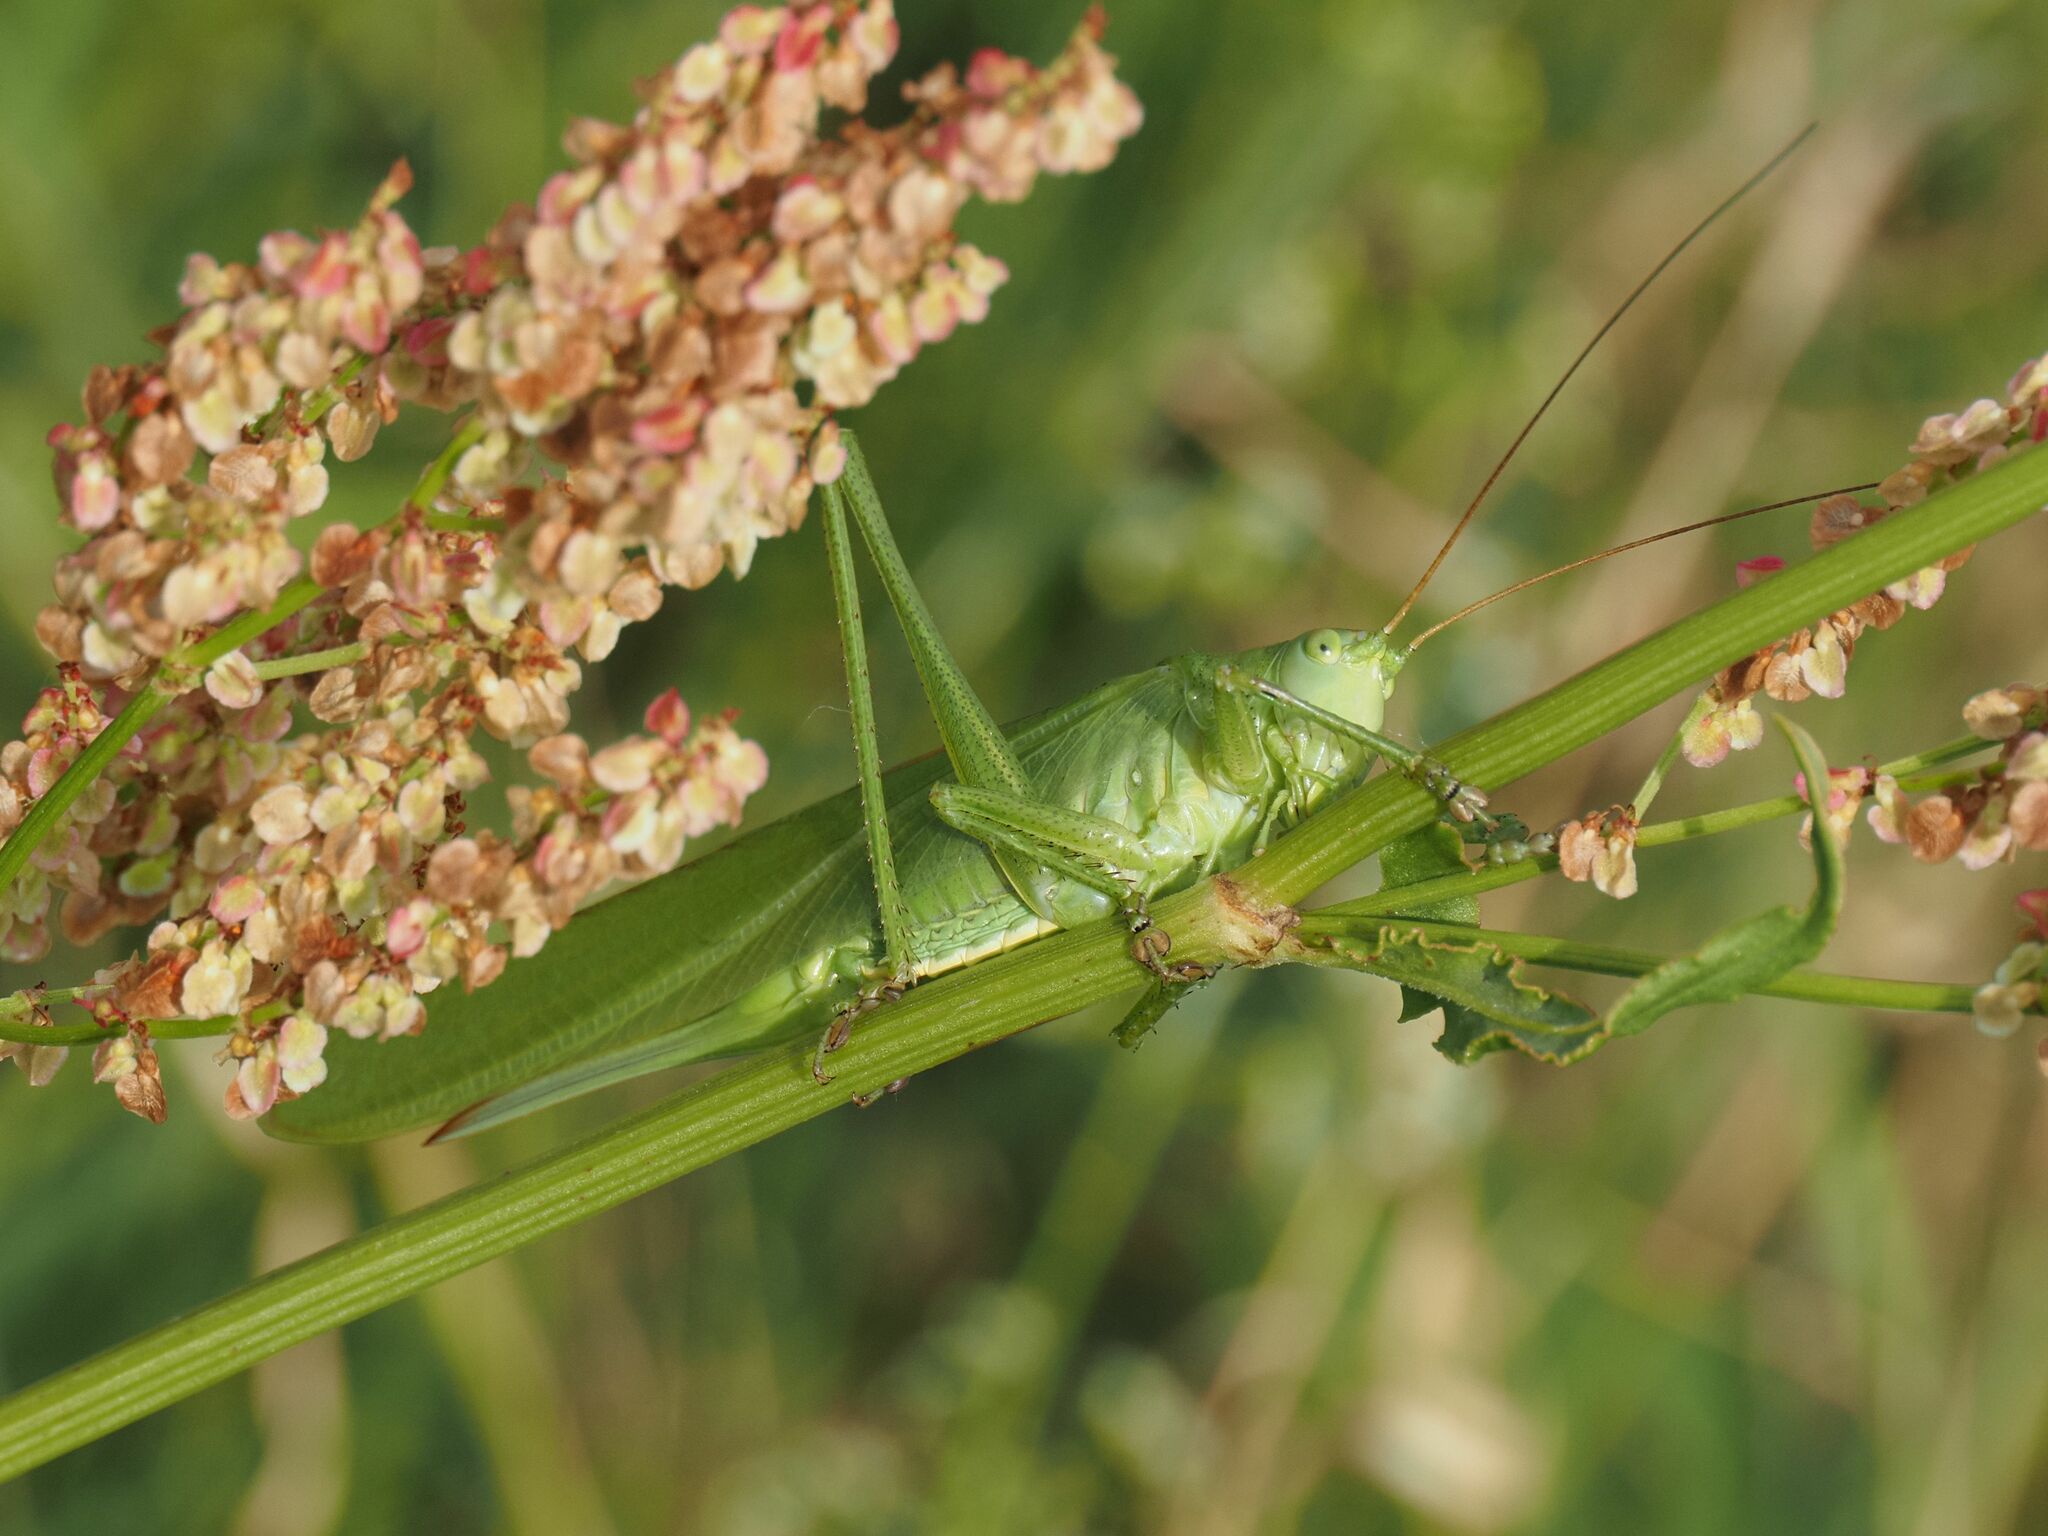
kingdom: Animalia
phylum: Arthropoda
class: Insecta
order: Orthoptera
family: Tettigoniidae
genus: Tettigonia
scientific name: Tettigonia viridissima
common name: Great green bush-cricket
